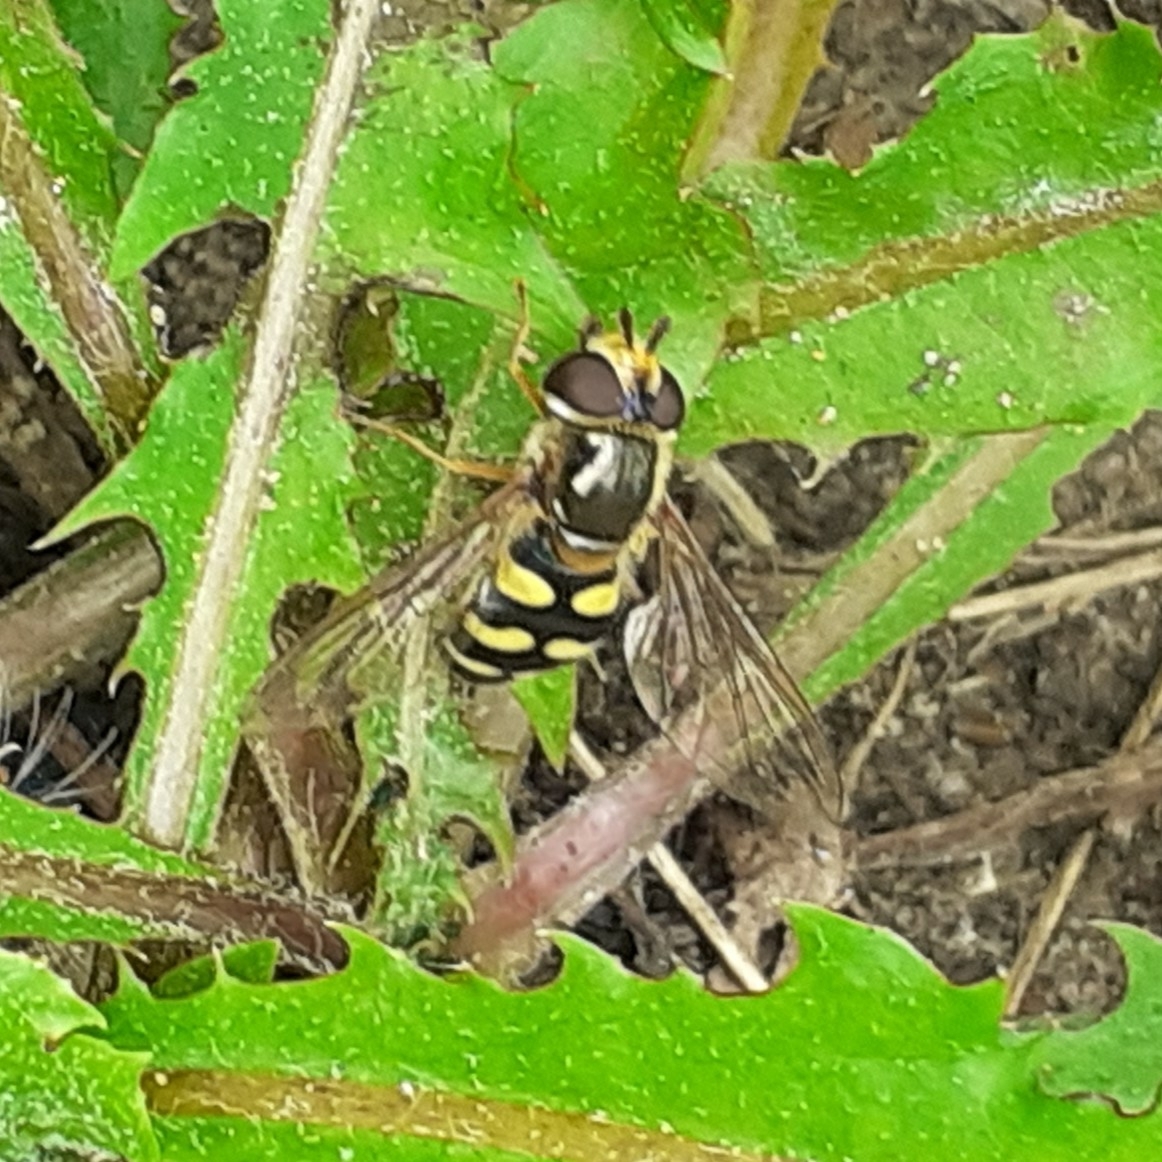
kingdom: Animalia
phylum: Arthropoda
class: Insecta
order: Diptera
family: Syrphidae
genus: Eupeodes
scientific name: Eupeodes luniger
